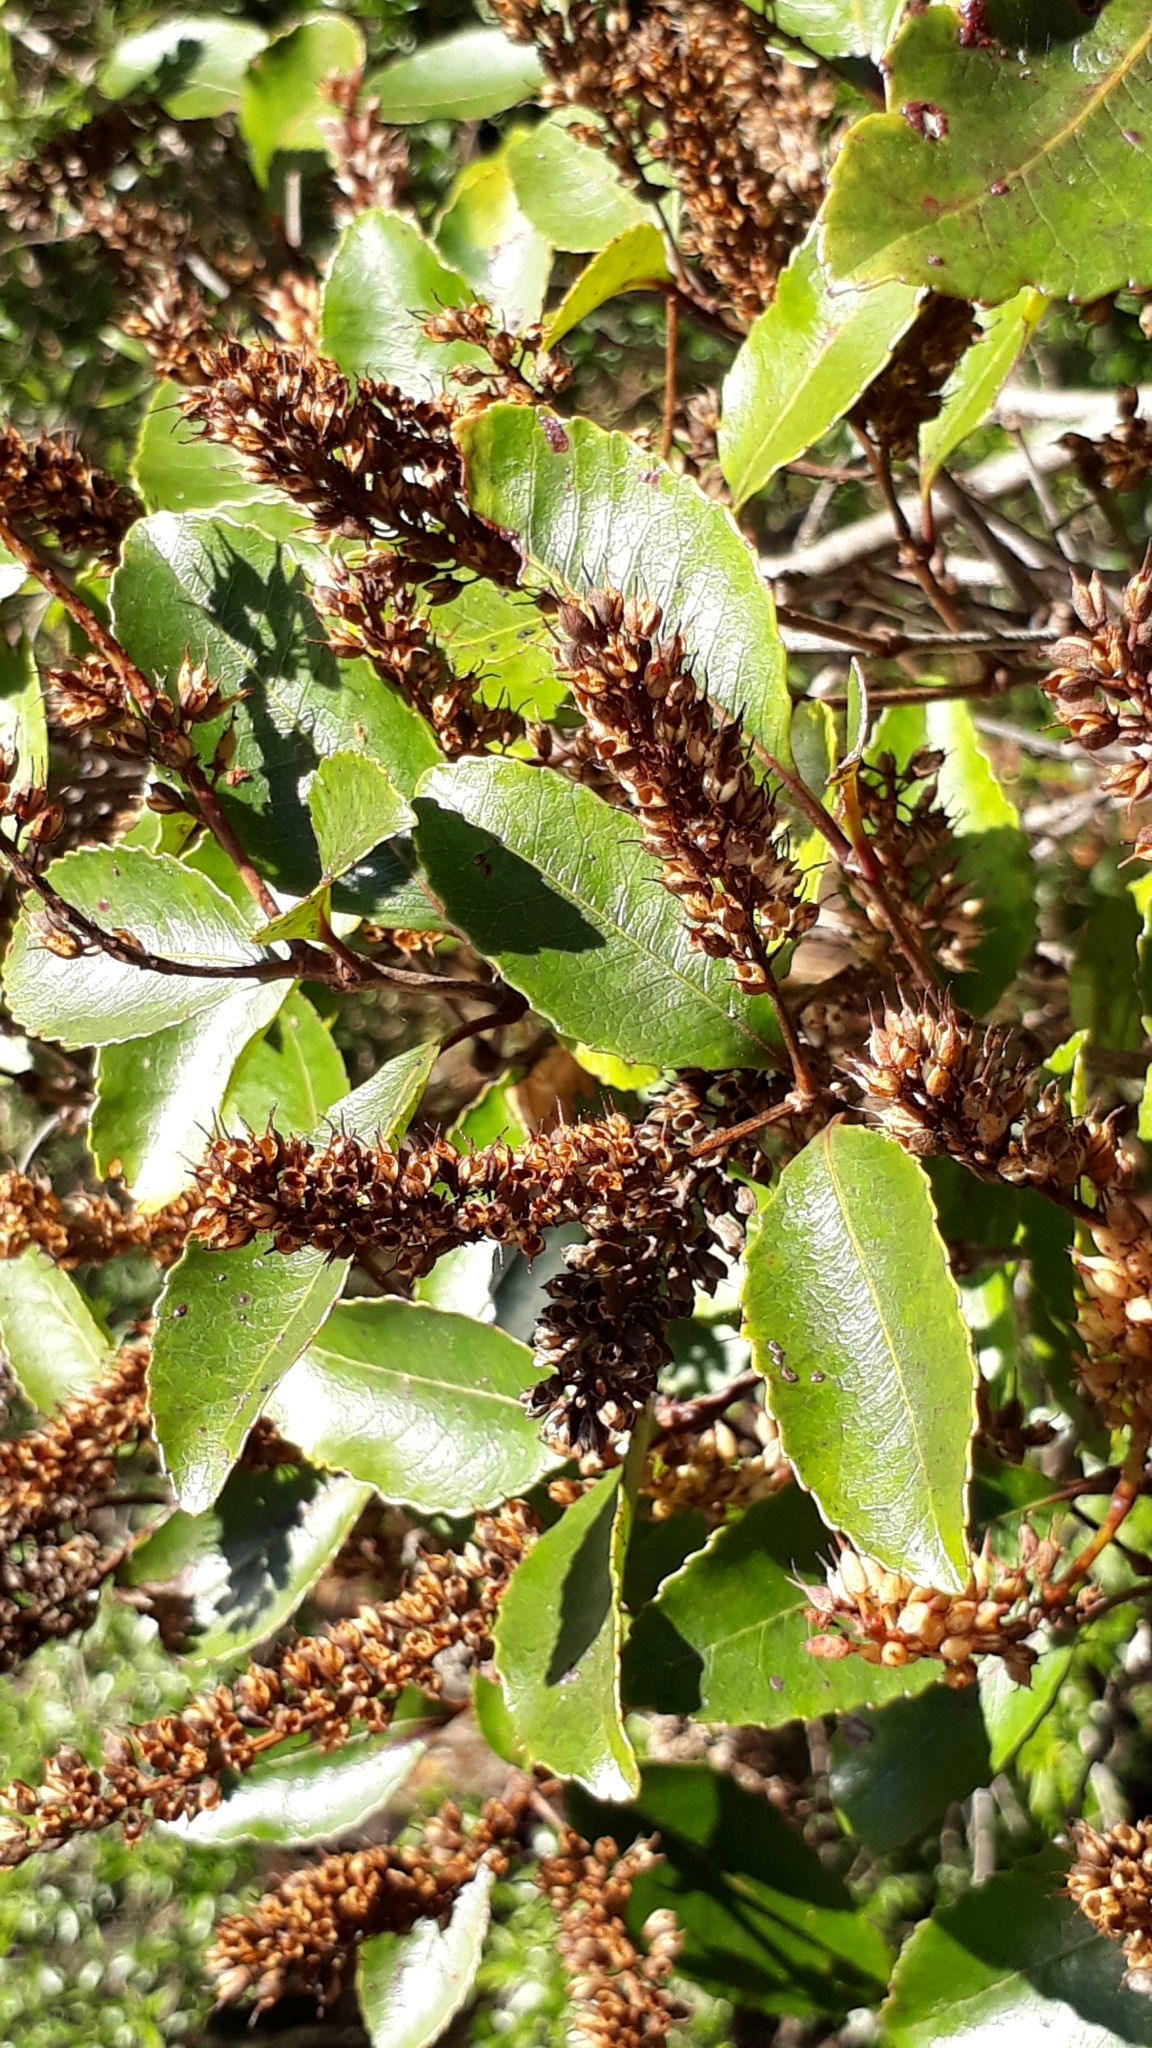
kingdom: Plantae
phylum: Tracheophyta
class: Magnoliopsida
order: Oxalidales
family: Cunoniaceae
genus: Pterophylla
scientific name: Pterophylla racemosa
